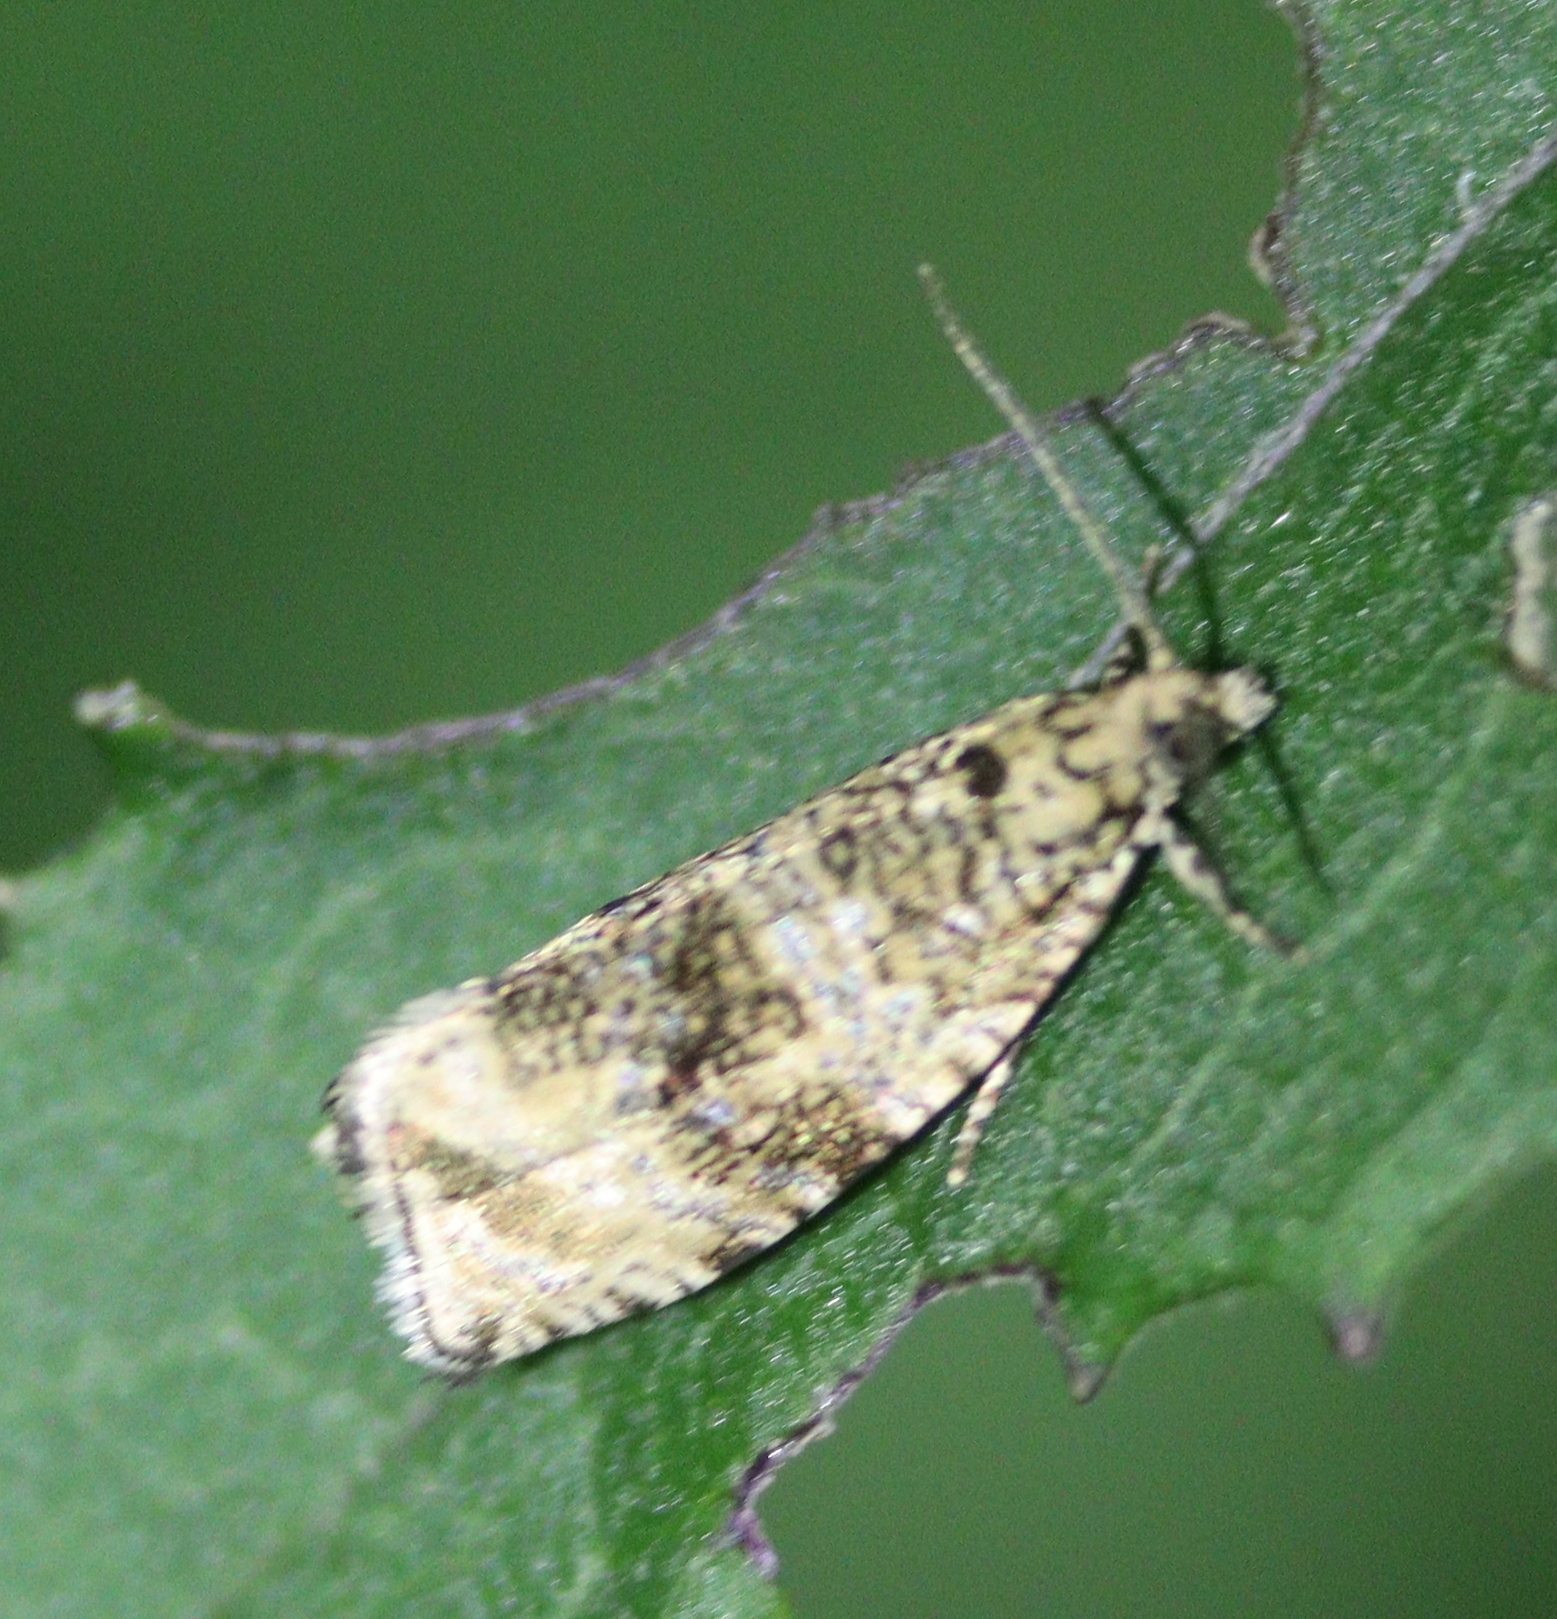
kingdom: Animalia
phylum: Arthropoda
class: Insecta
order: Lepidoptera
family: Tortricidae
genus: Syricoris
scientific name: Syricoris lacunana
